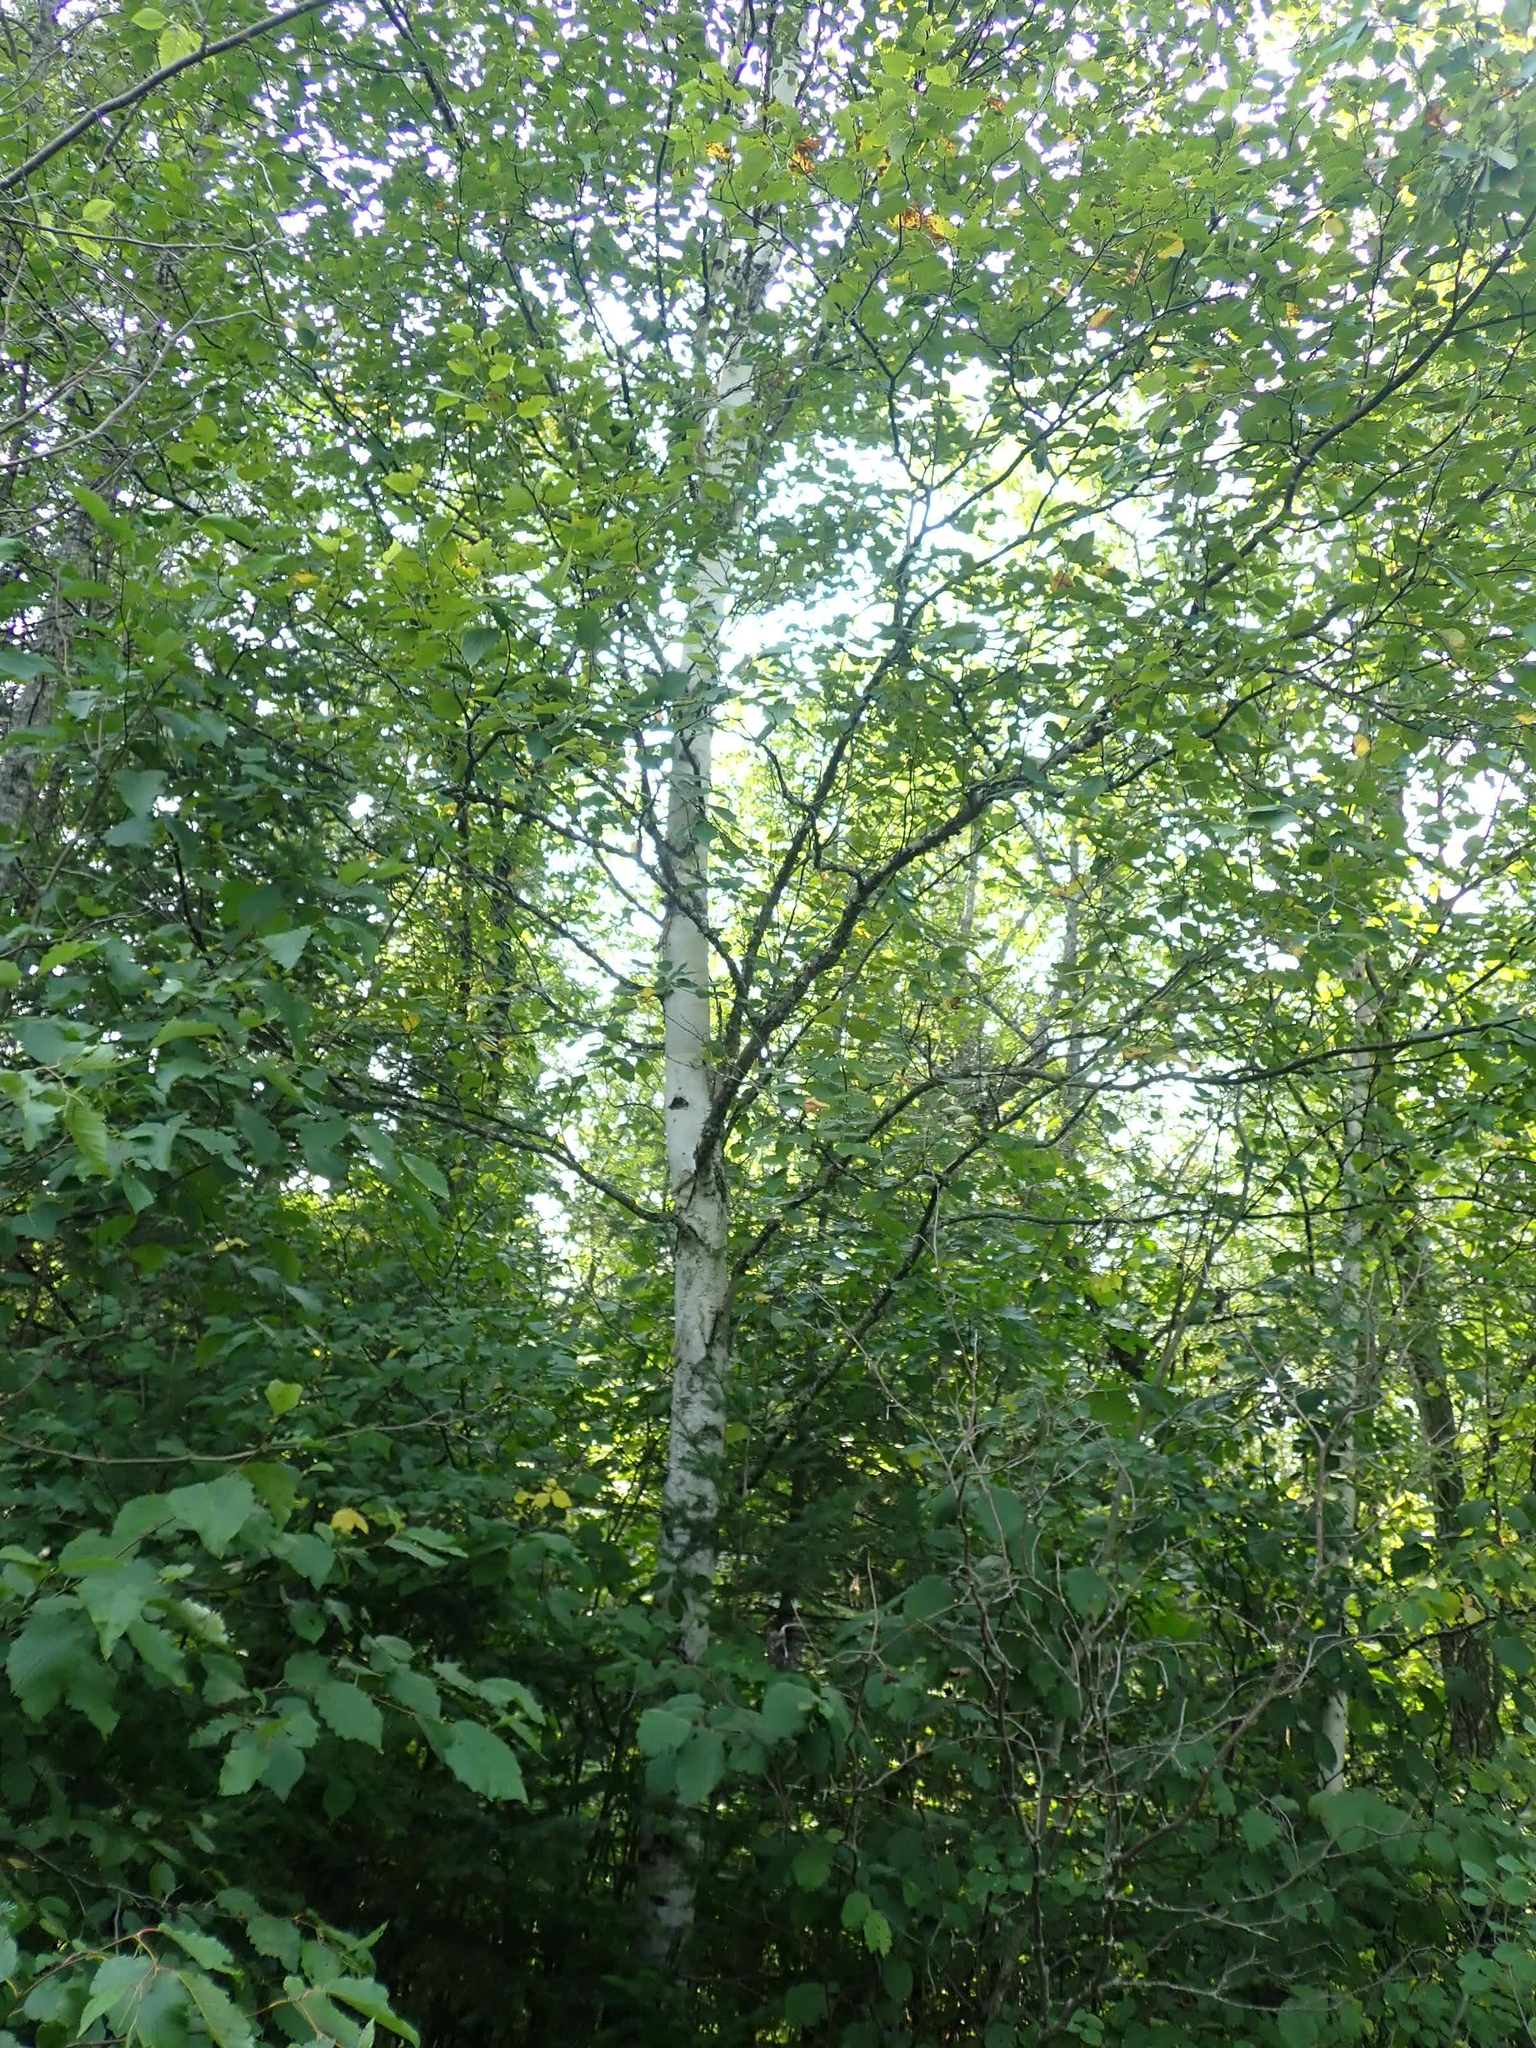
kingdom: Plantae
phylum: Tracheophyta
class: Magnoliopsida
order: Fagales
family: Betulaceae
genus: Betula
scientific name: Betula papyrifera
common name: Paper birch
